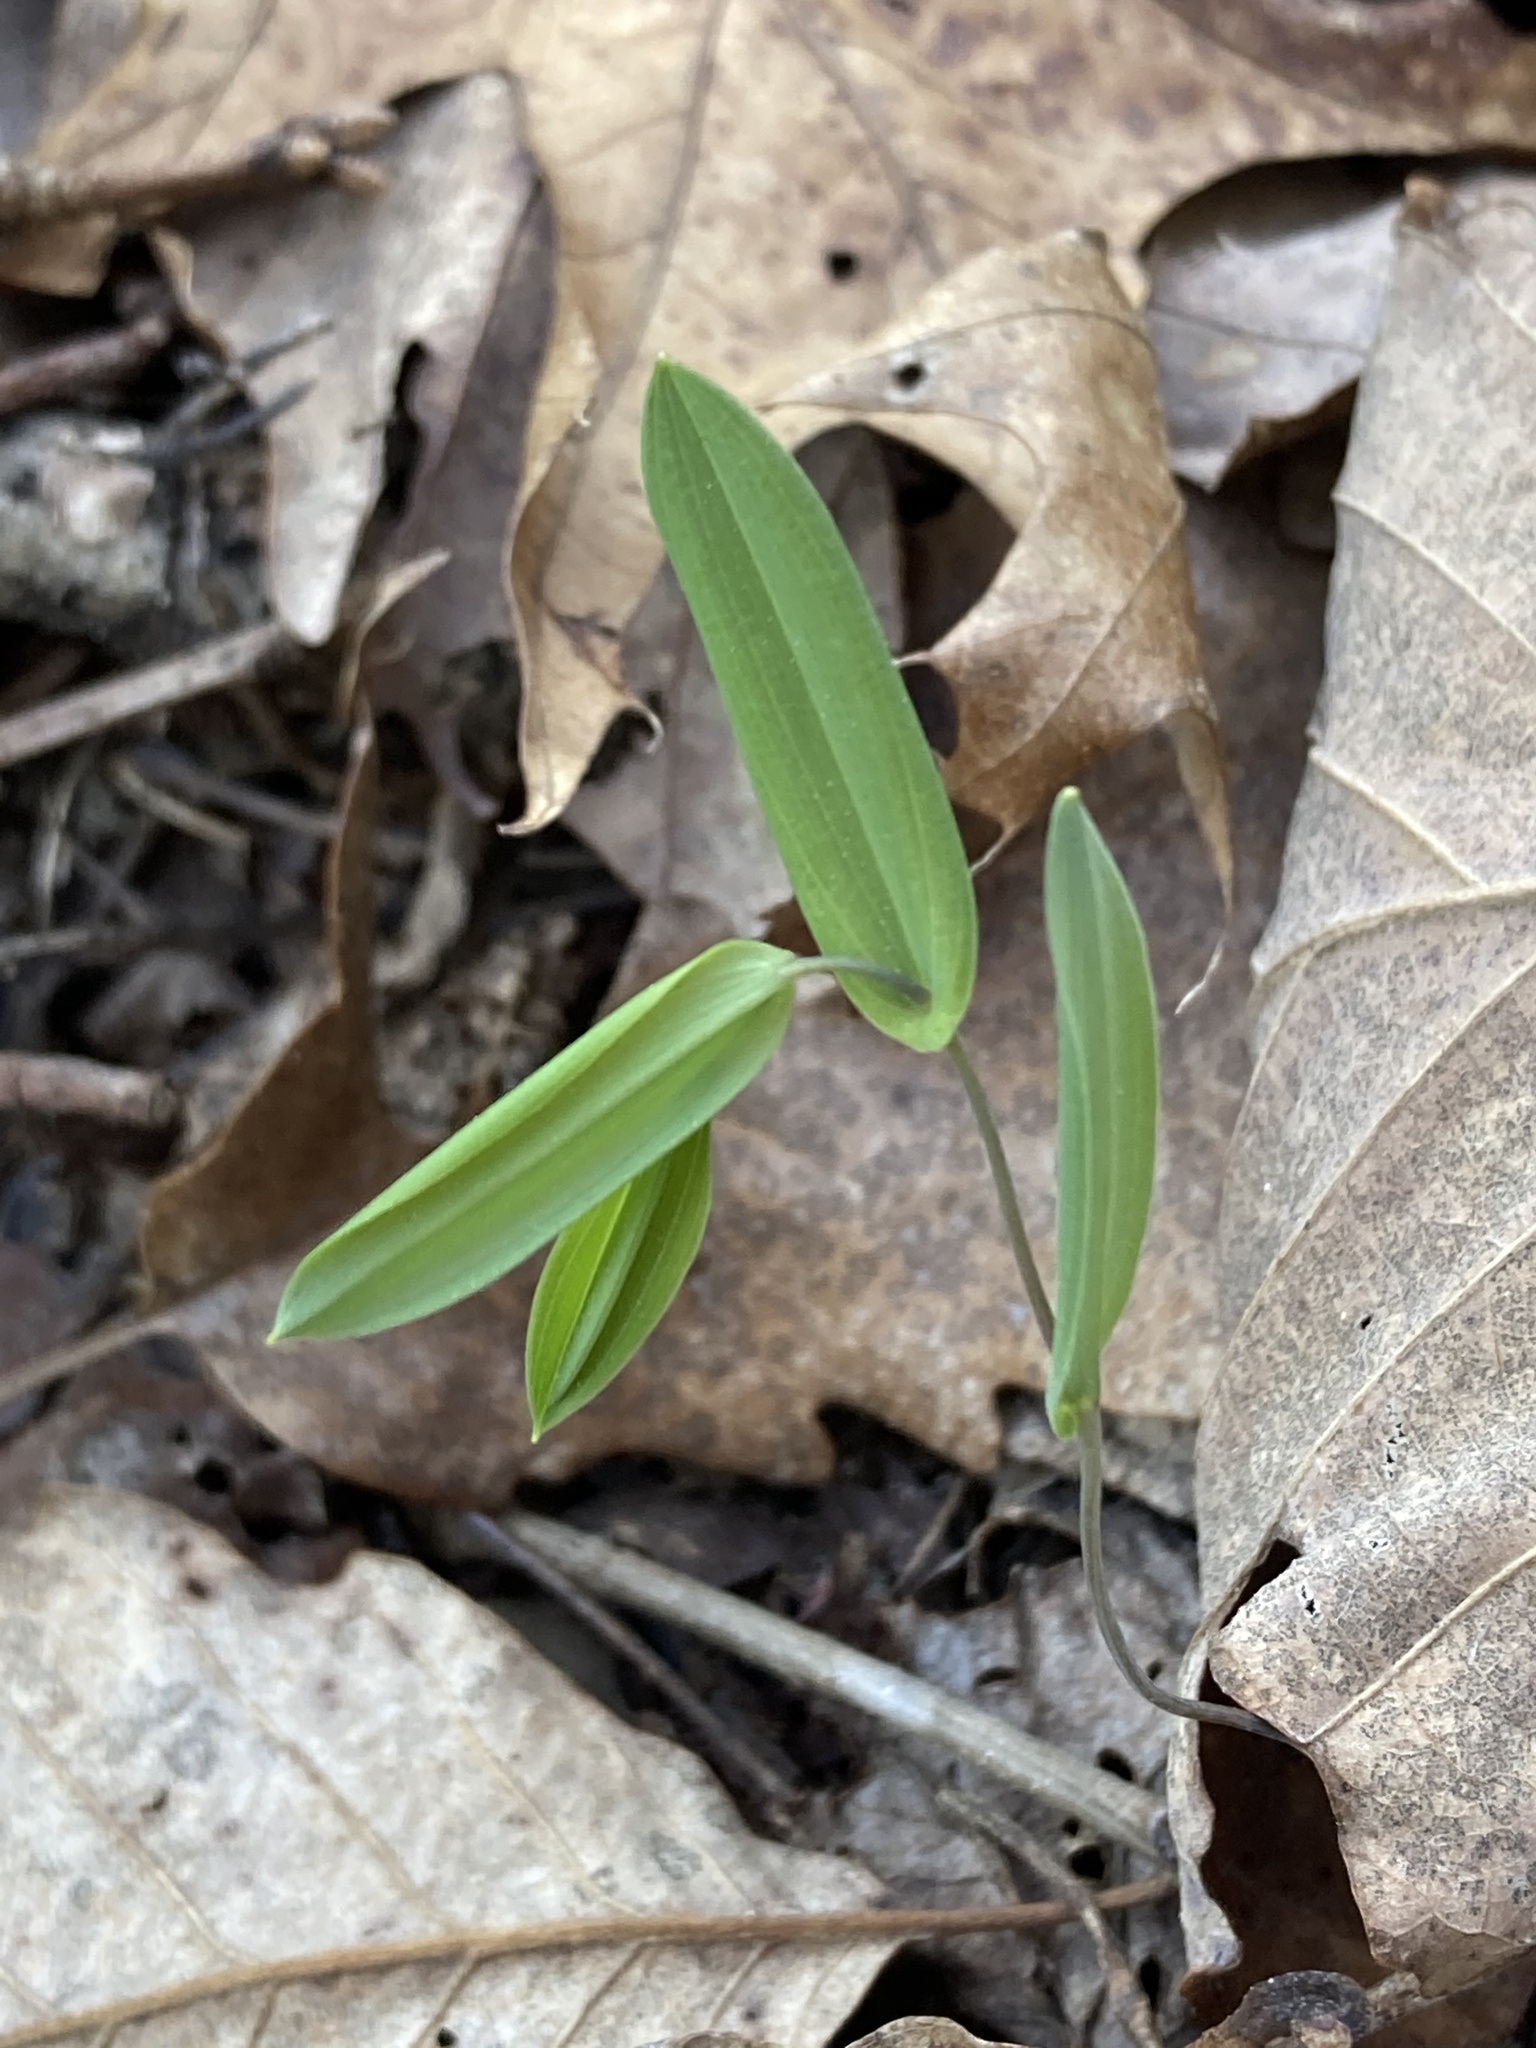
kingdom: Plantae
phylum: Tracheophyta
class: Liliopsida
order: Liliales
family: Colchicaceae
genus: Uvularia
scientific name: Uvularia perfoliata
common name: Perfoliate bellwort
